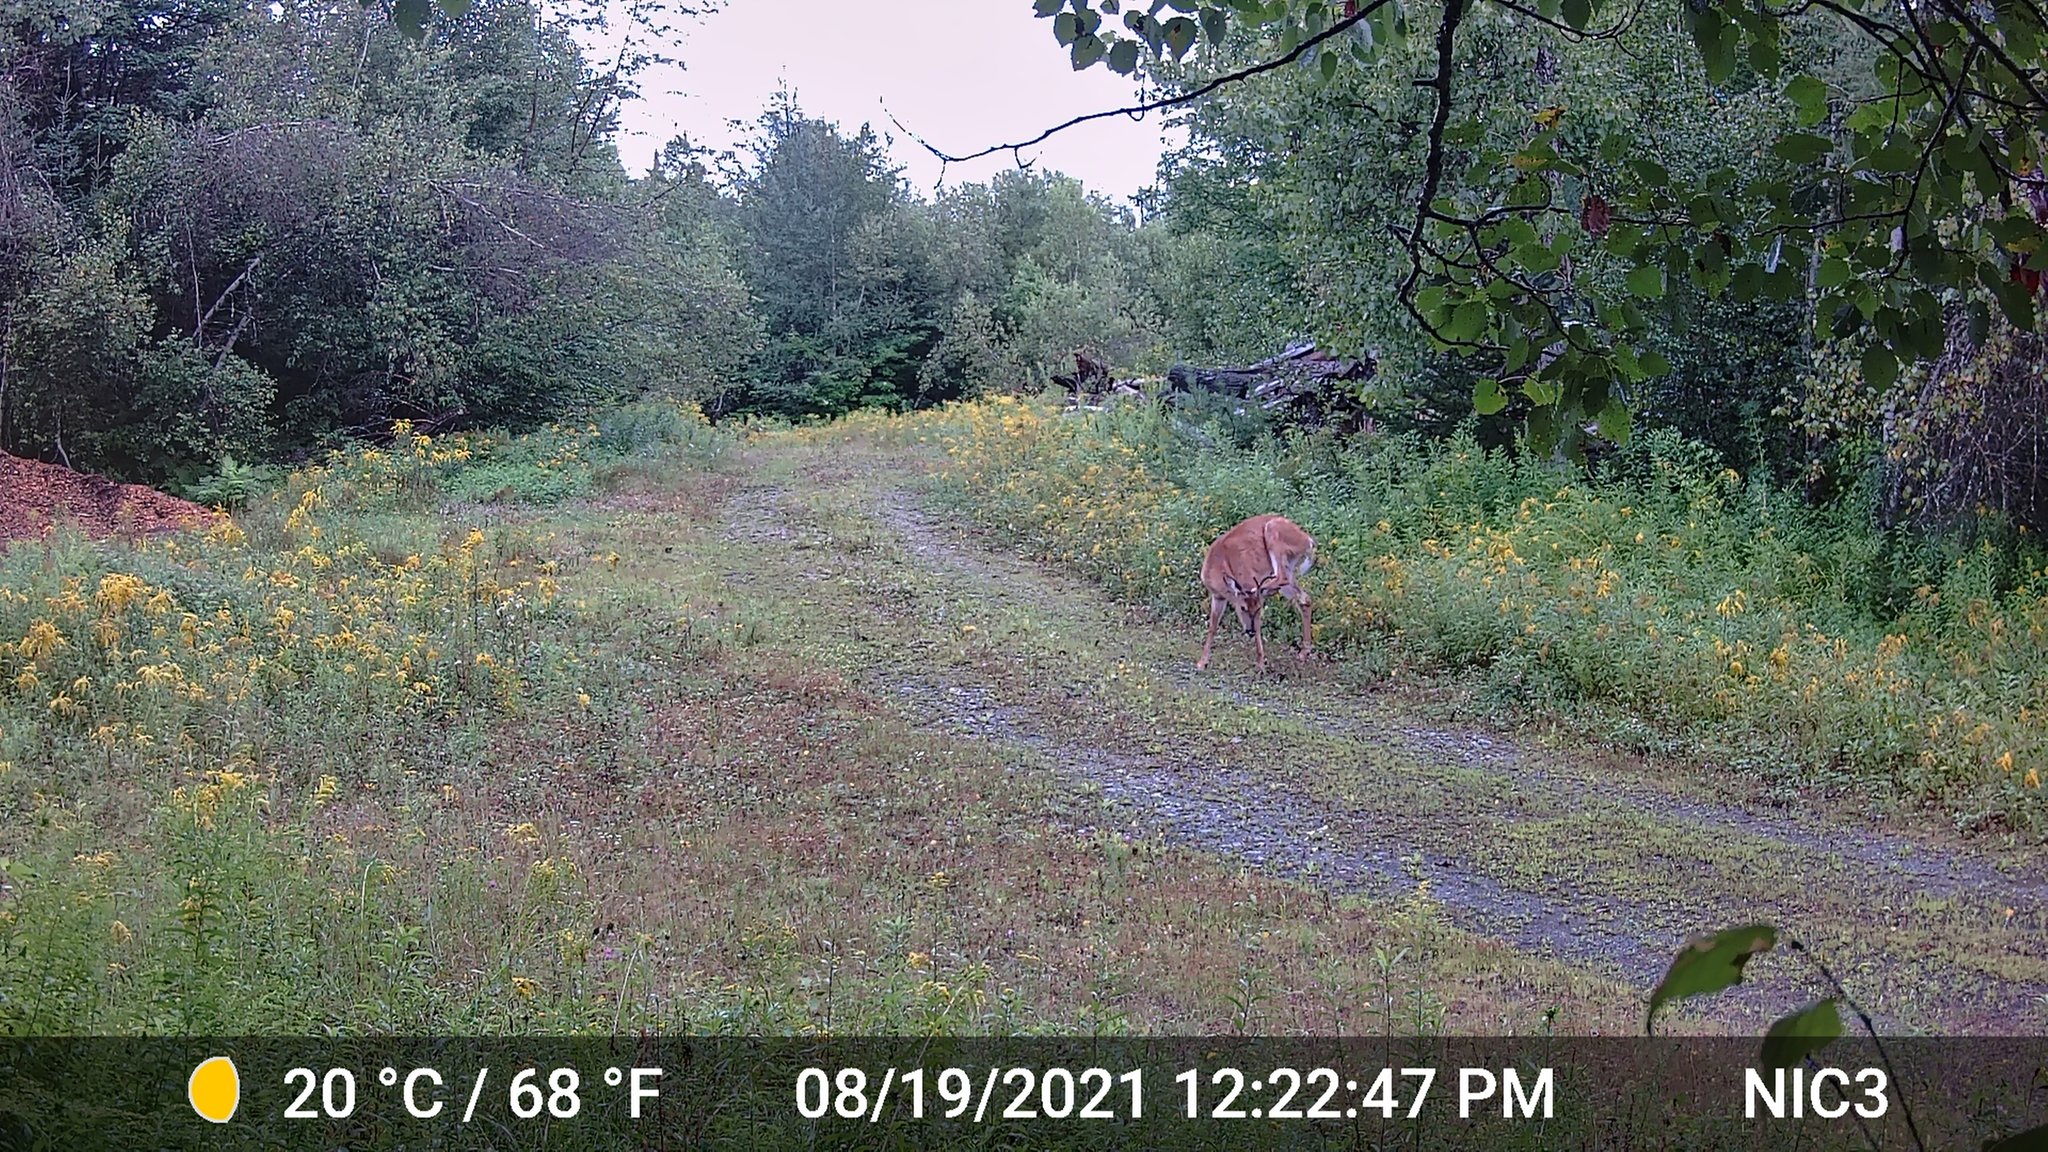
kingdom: Animalia
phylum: Chordata
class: Mammalia
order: Artiodactyla
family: Cervidae
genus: Odocoileus
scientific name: Odocoileus virginianus
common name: White-tailed deer
